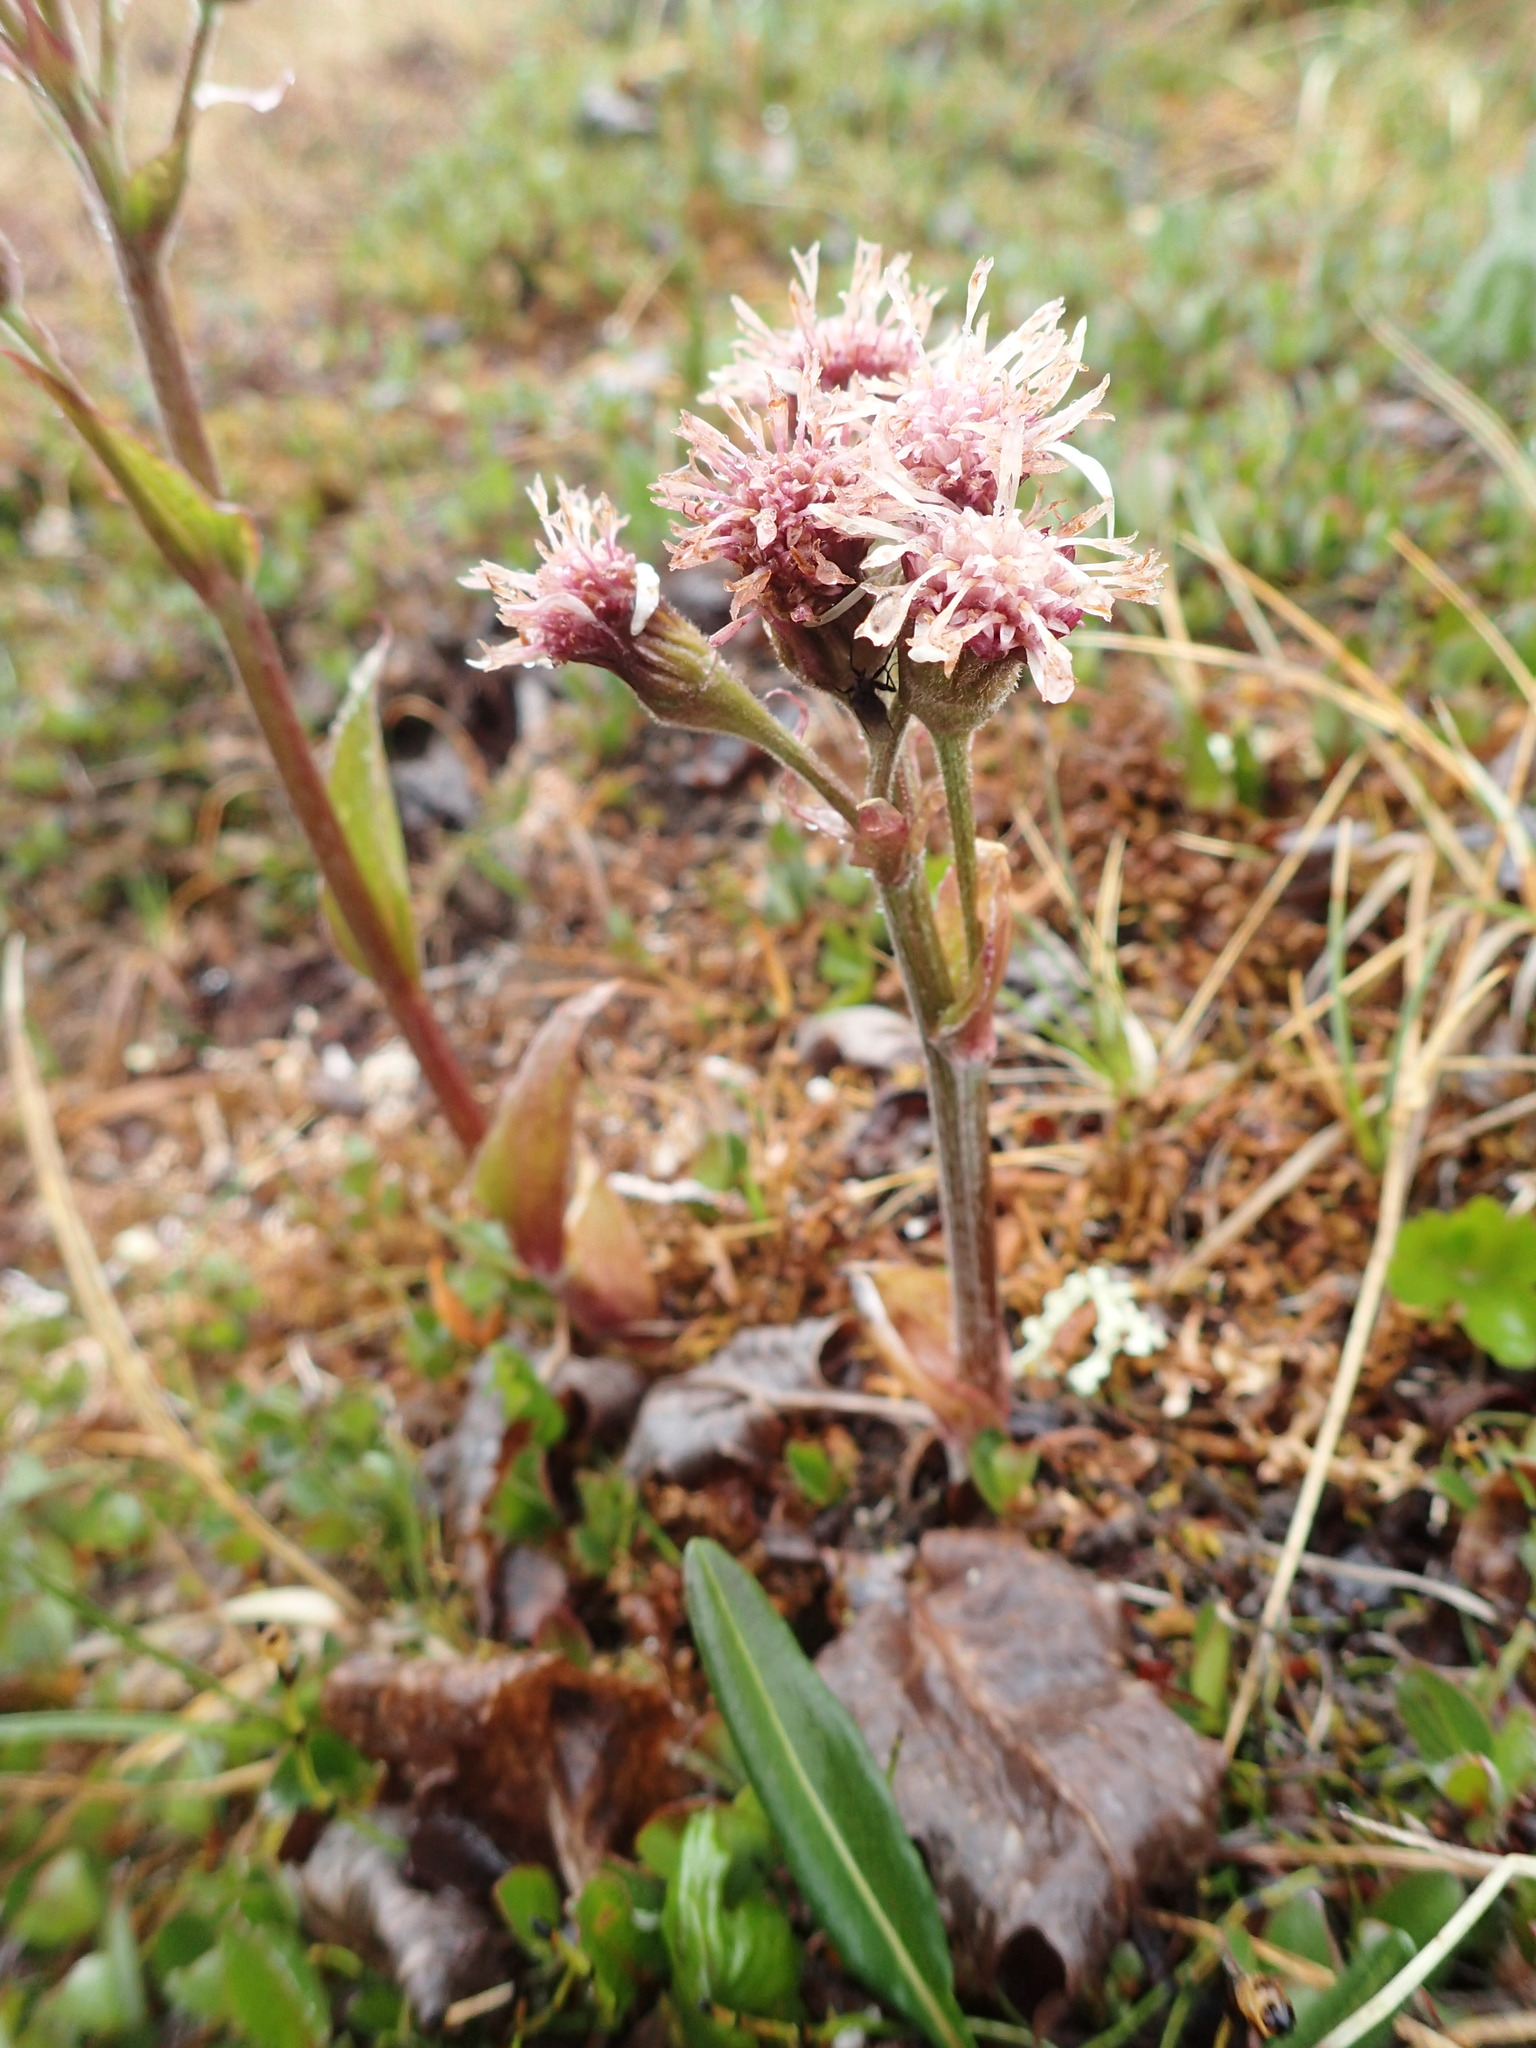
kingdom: Plantae
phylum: Tracheophyta
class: Magnoliopsida
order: Asterales
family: Asteraceae
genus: Petasites
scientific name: Petasites frigidus
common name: Arctic butterbur
